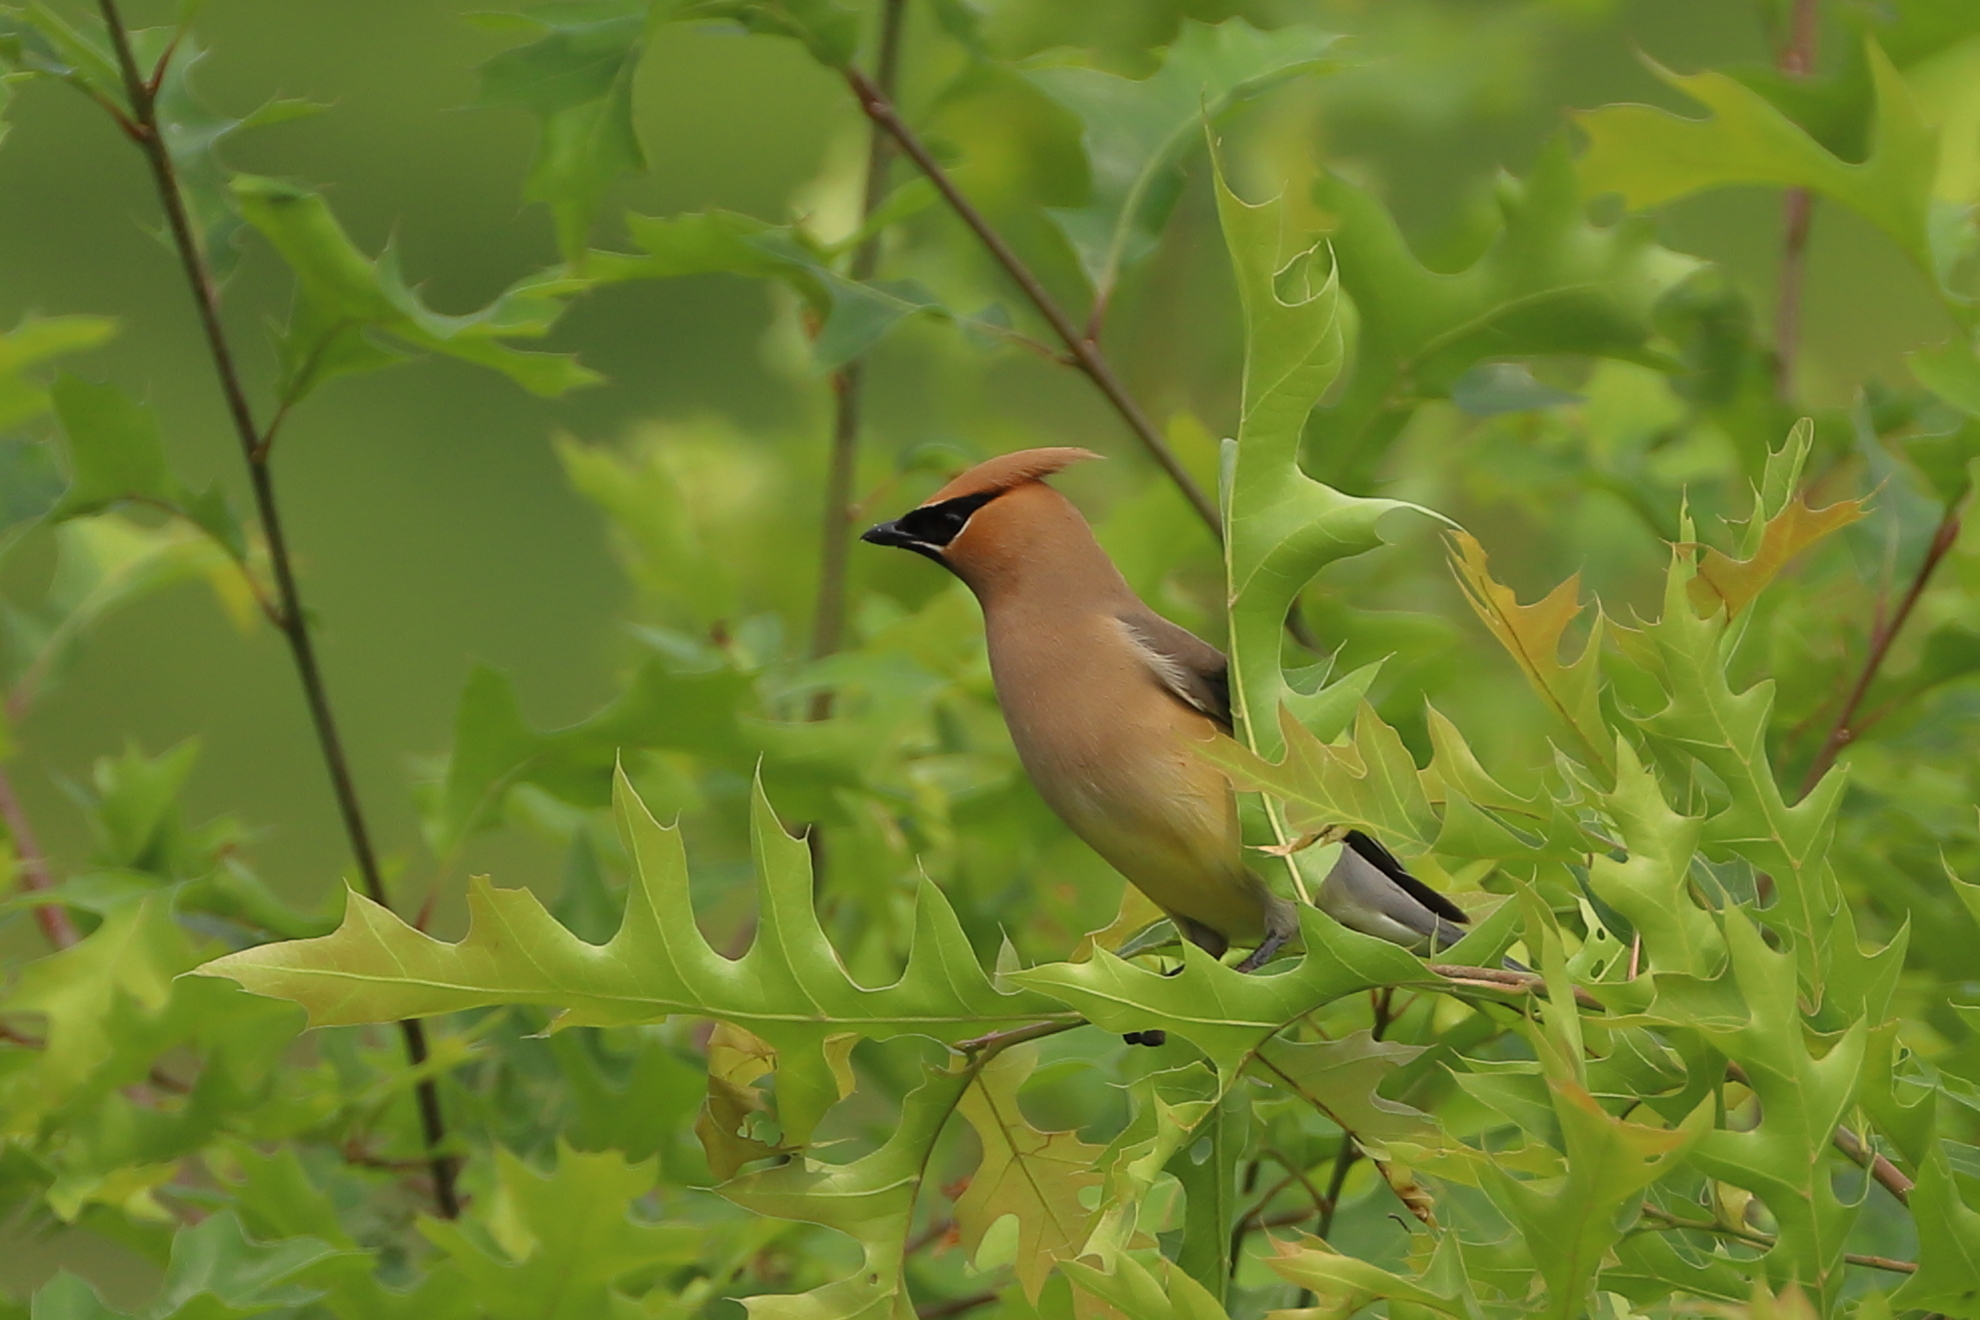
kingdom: Animalia
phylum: Chordata
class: Aves
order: Passeriformes
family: Bombycillidae
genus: Bombycilla
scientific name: Bombycilla cedrorum
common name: Cedar waxwing
